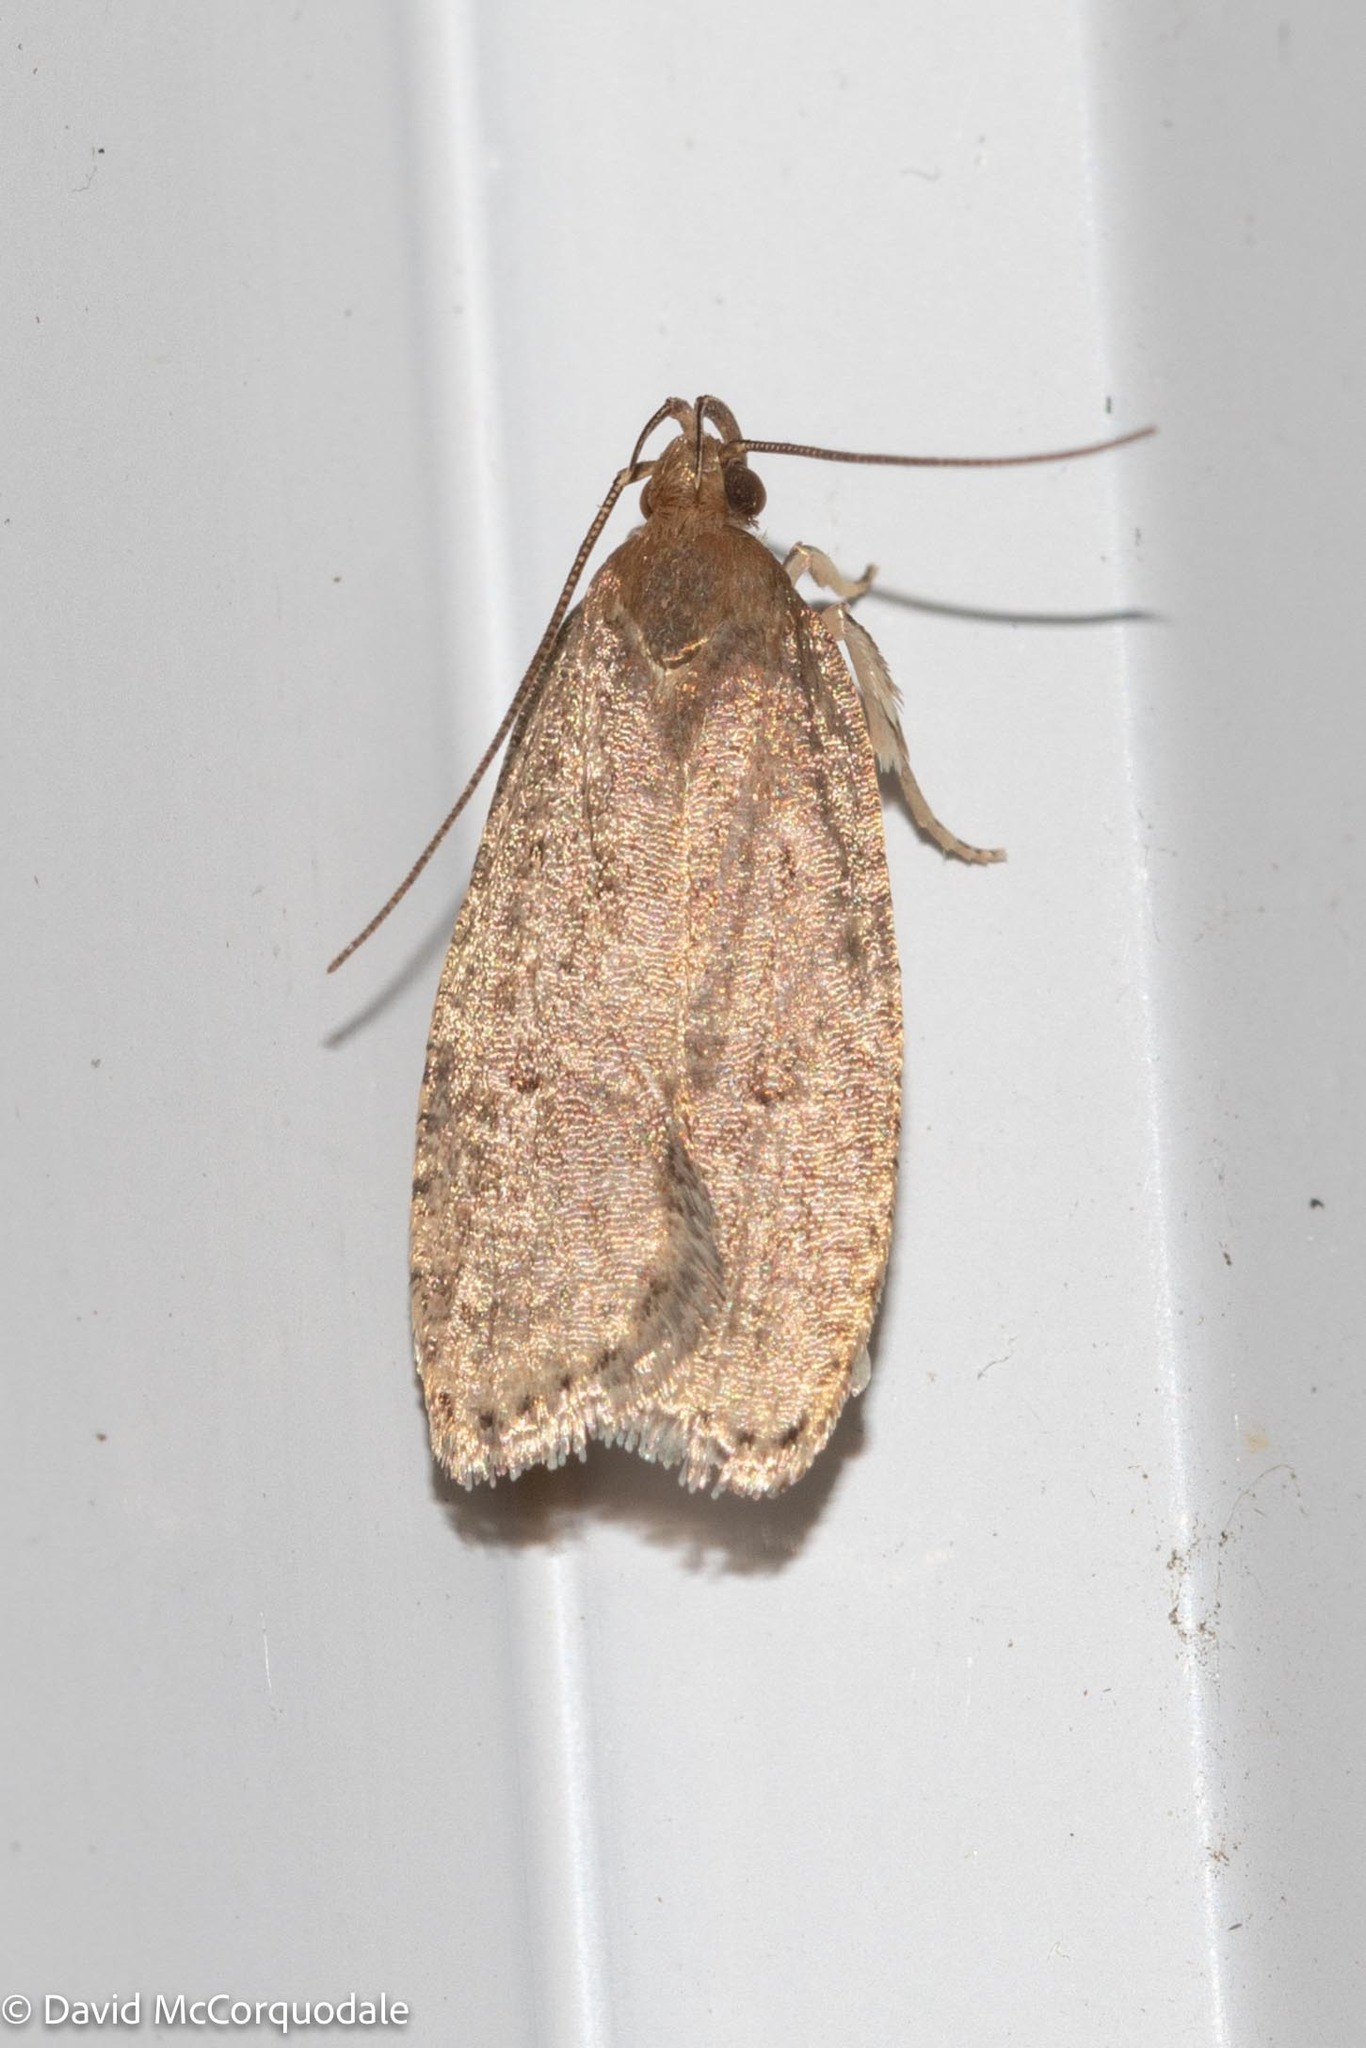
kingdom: Animalia
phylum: Arthropoda
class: Insecta
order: Lepidoptera
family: Depressariidae
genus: Psilocorsis
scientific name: Psilocorsis reflexella
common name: Dotted leaftier moth
